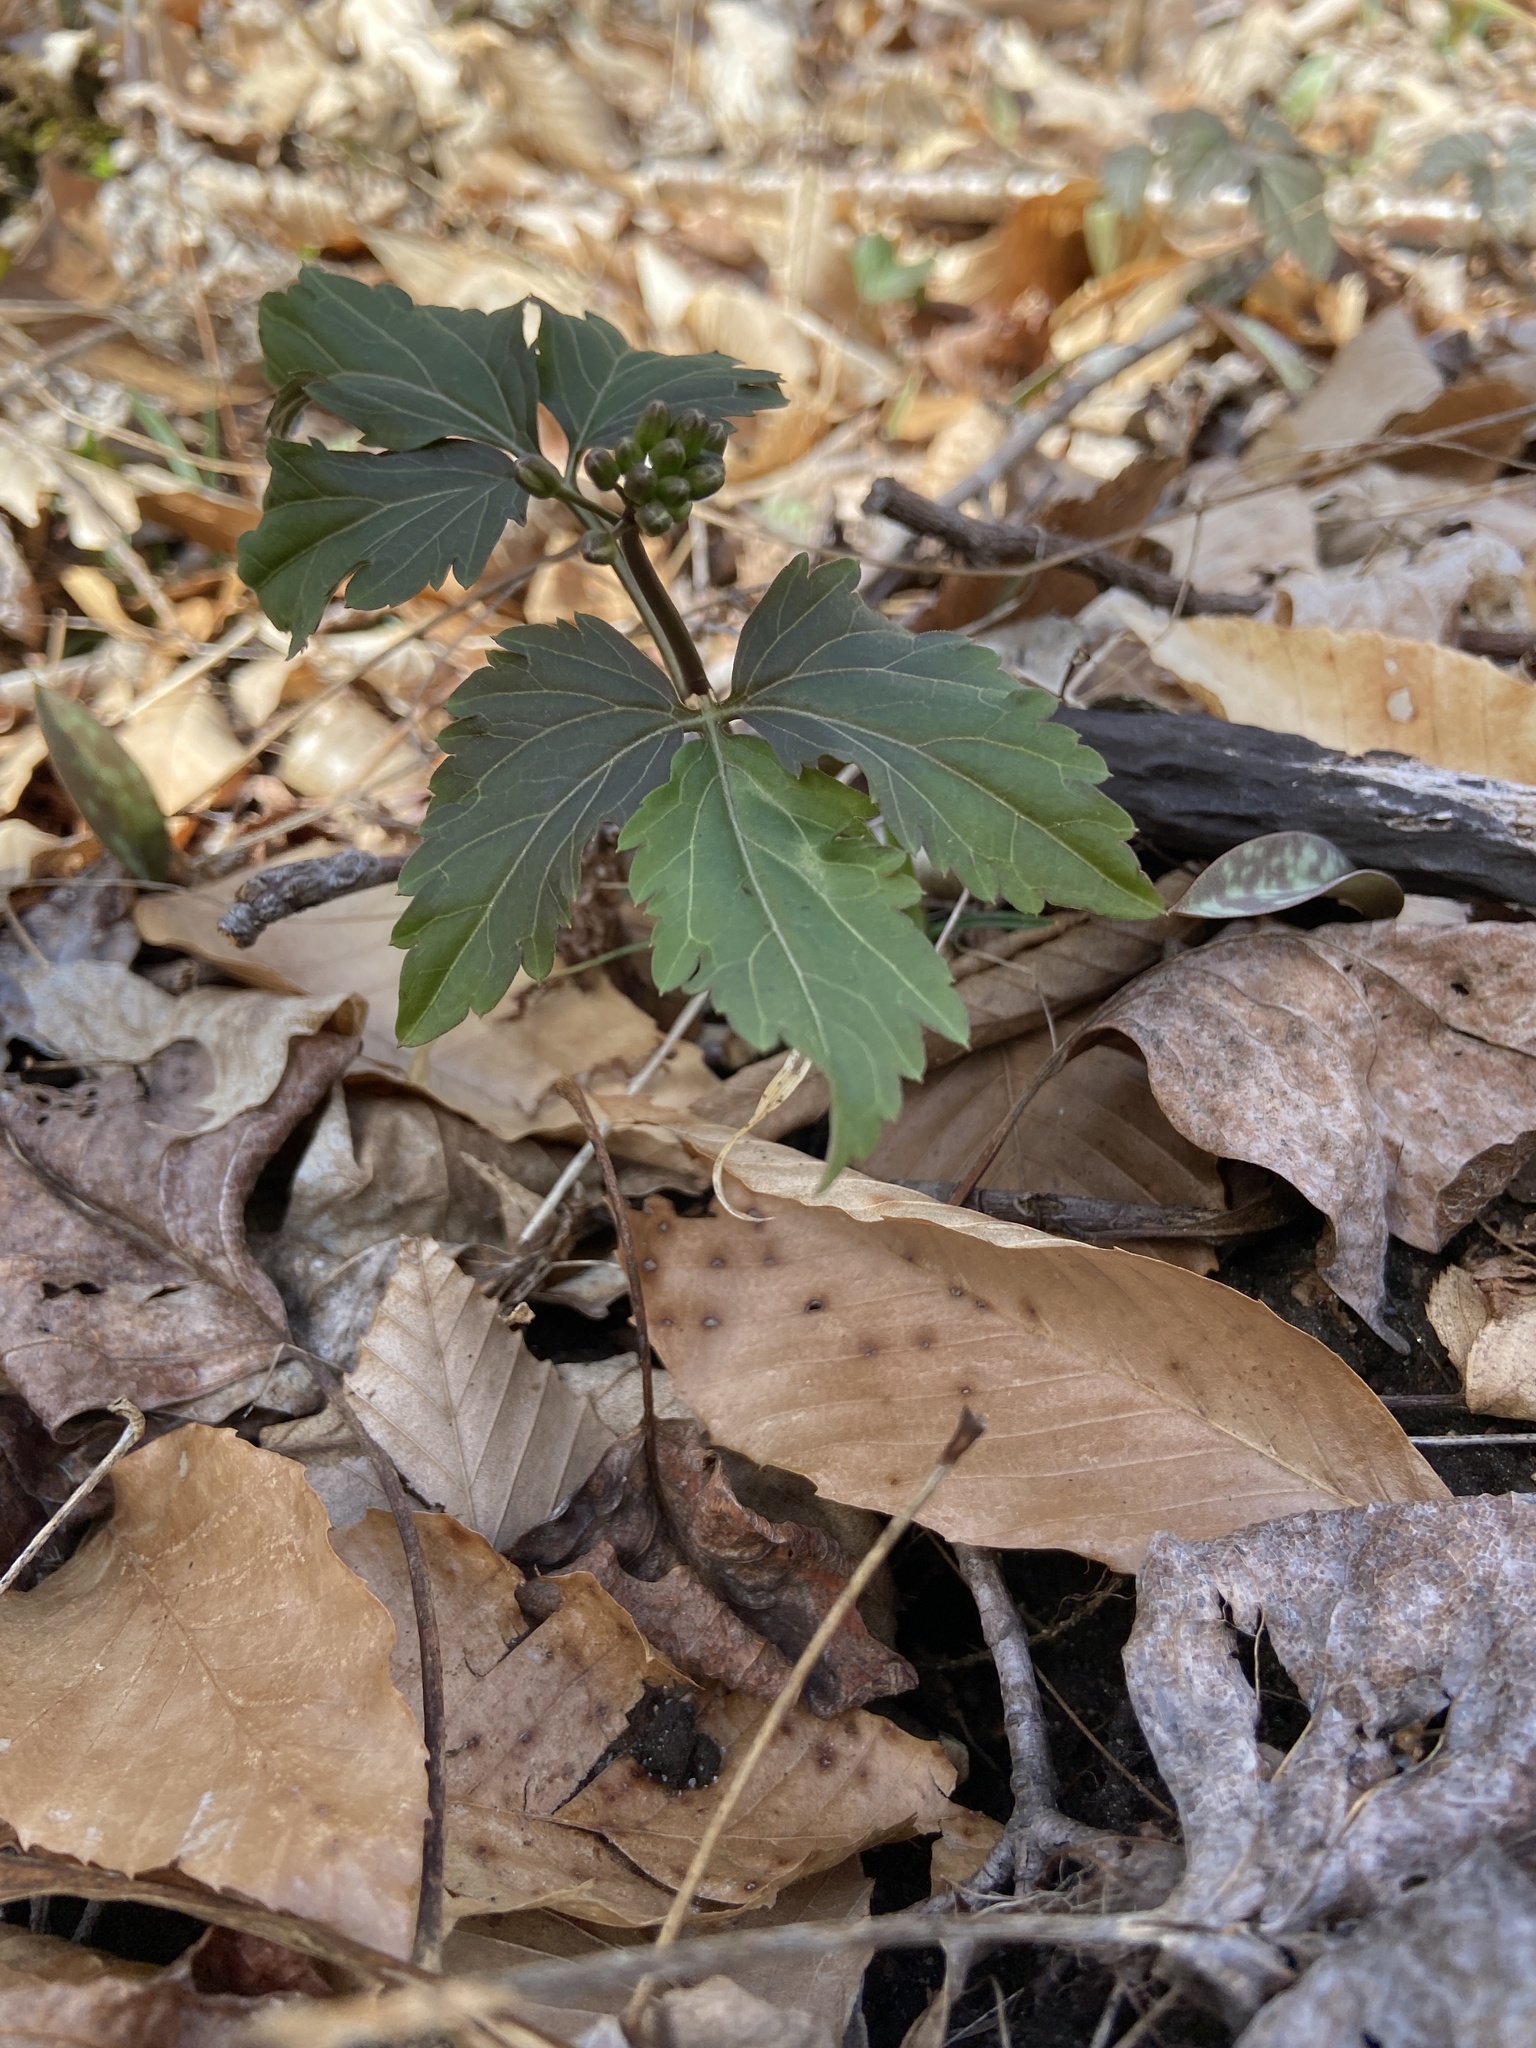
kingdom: Plantae
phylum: Tracheophyta
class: Magnoliopsida
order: Brassicales
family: Brassicaceae
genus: Cardamine
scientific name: Cardamine diphylla
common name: Broad-leaved toothwort
